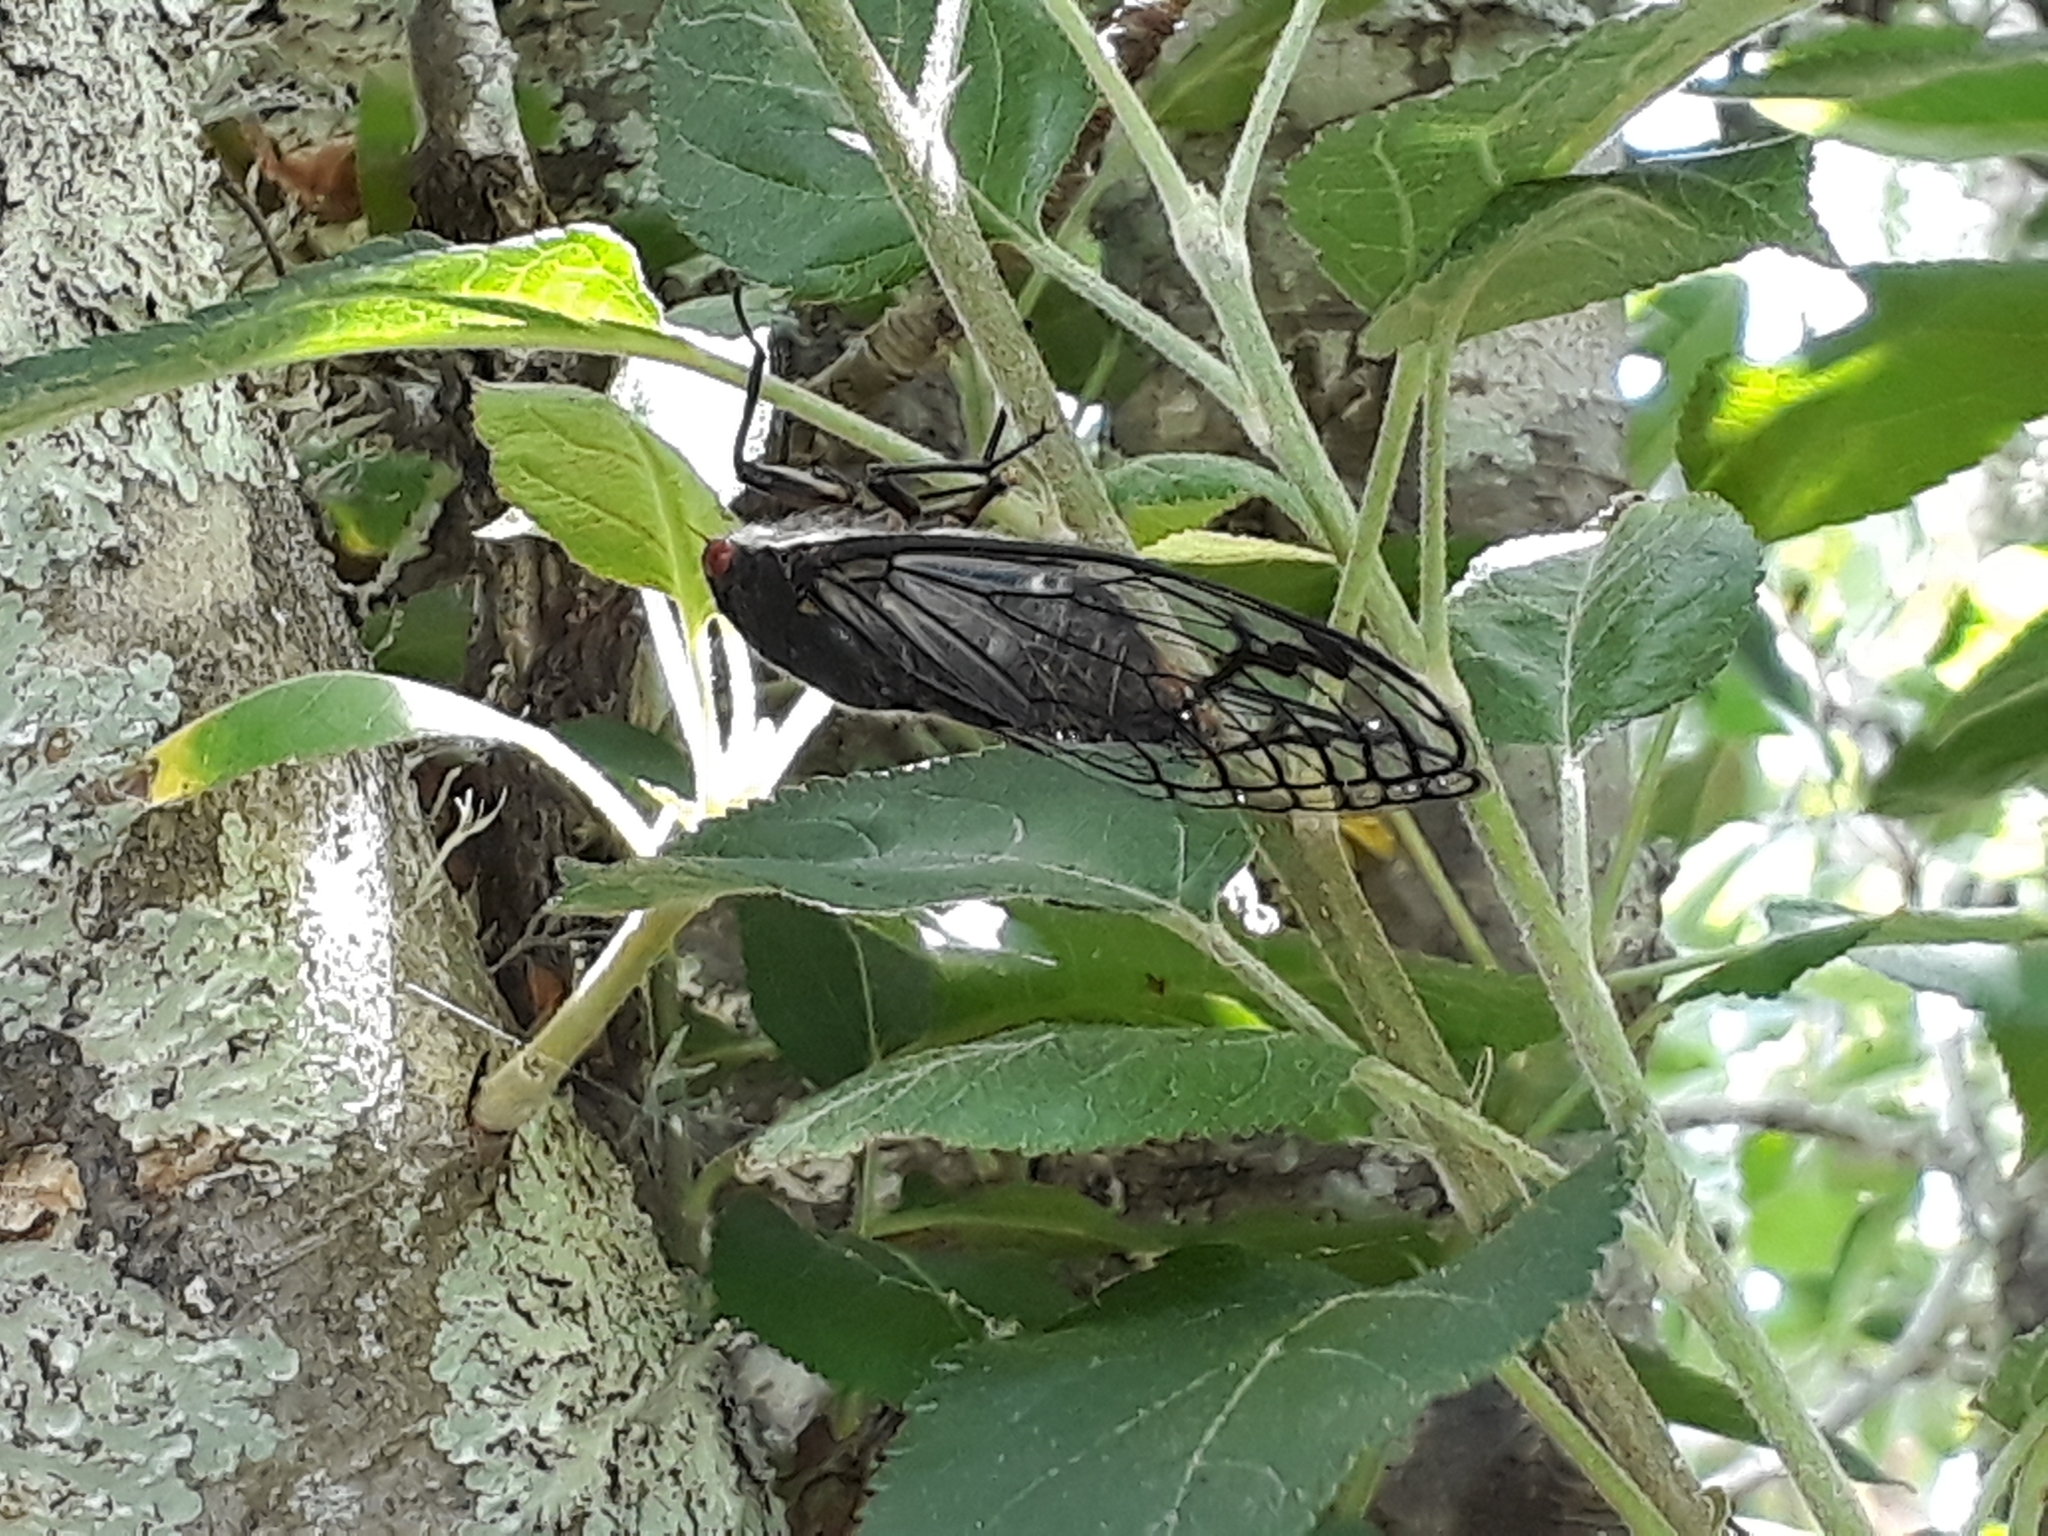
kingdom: Animalia
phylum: Arthropoda
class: Insecta
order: Hemiptera
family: Cicadidae
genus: Psaltoda
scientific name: Psaltoda moerens
